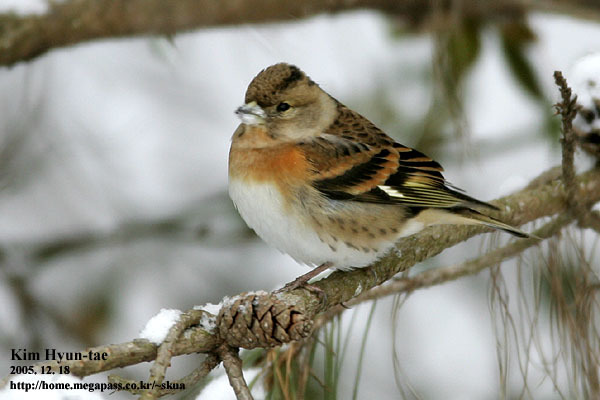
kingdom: Animalia
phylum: Chordata
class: Aves
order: Passeriformes
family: Fringillidae
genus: Fringilla
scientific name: Fringilla montifringilla
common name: Brambling
